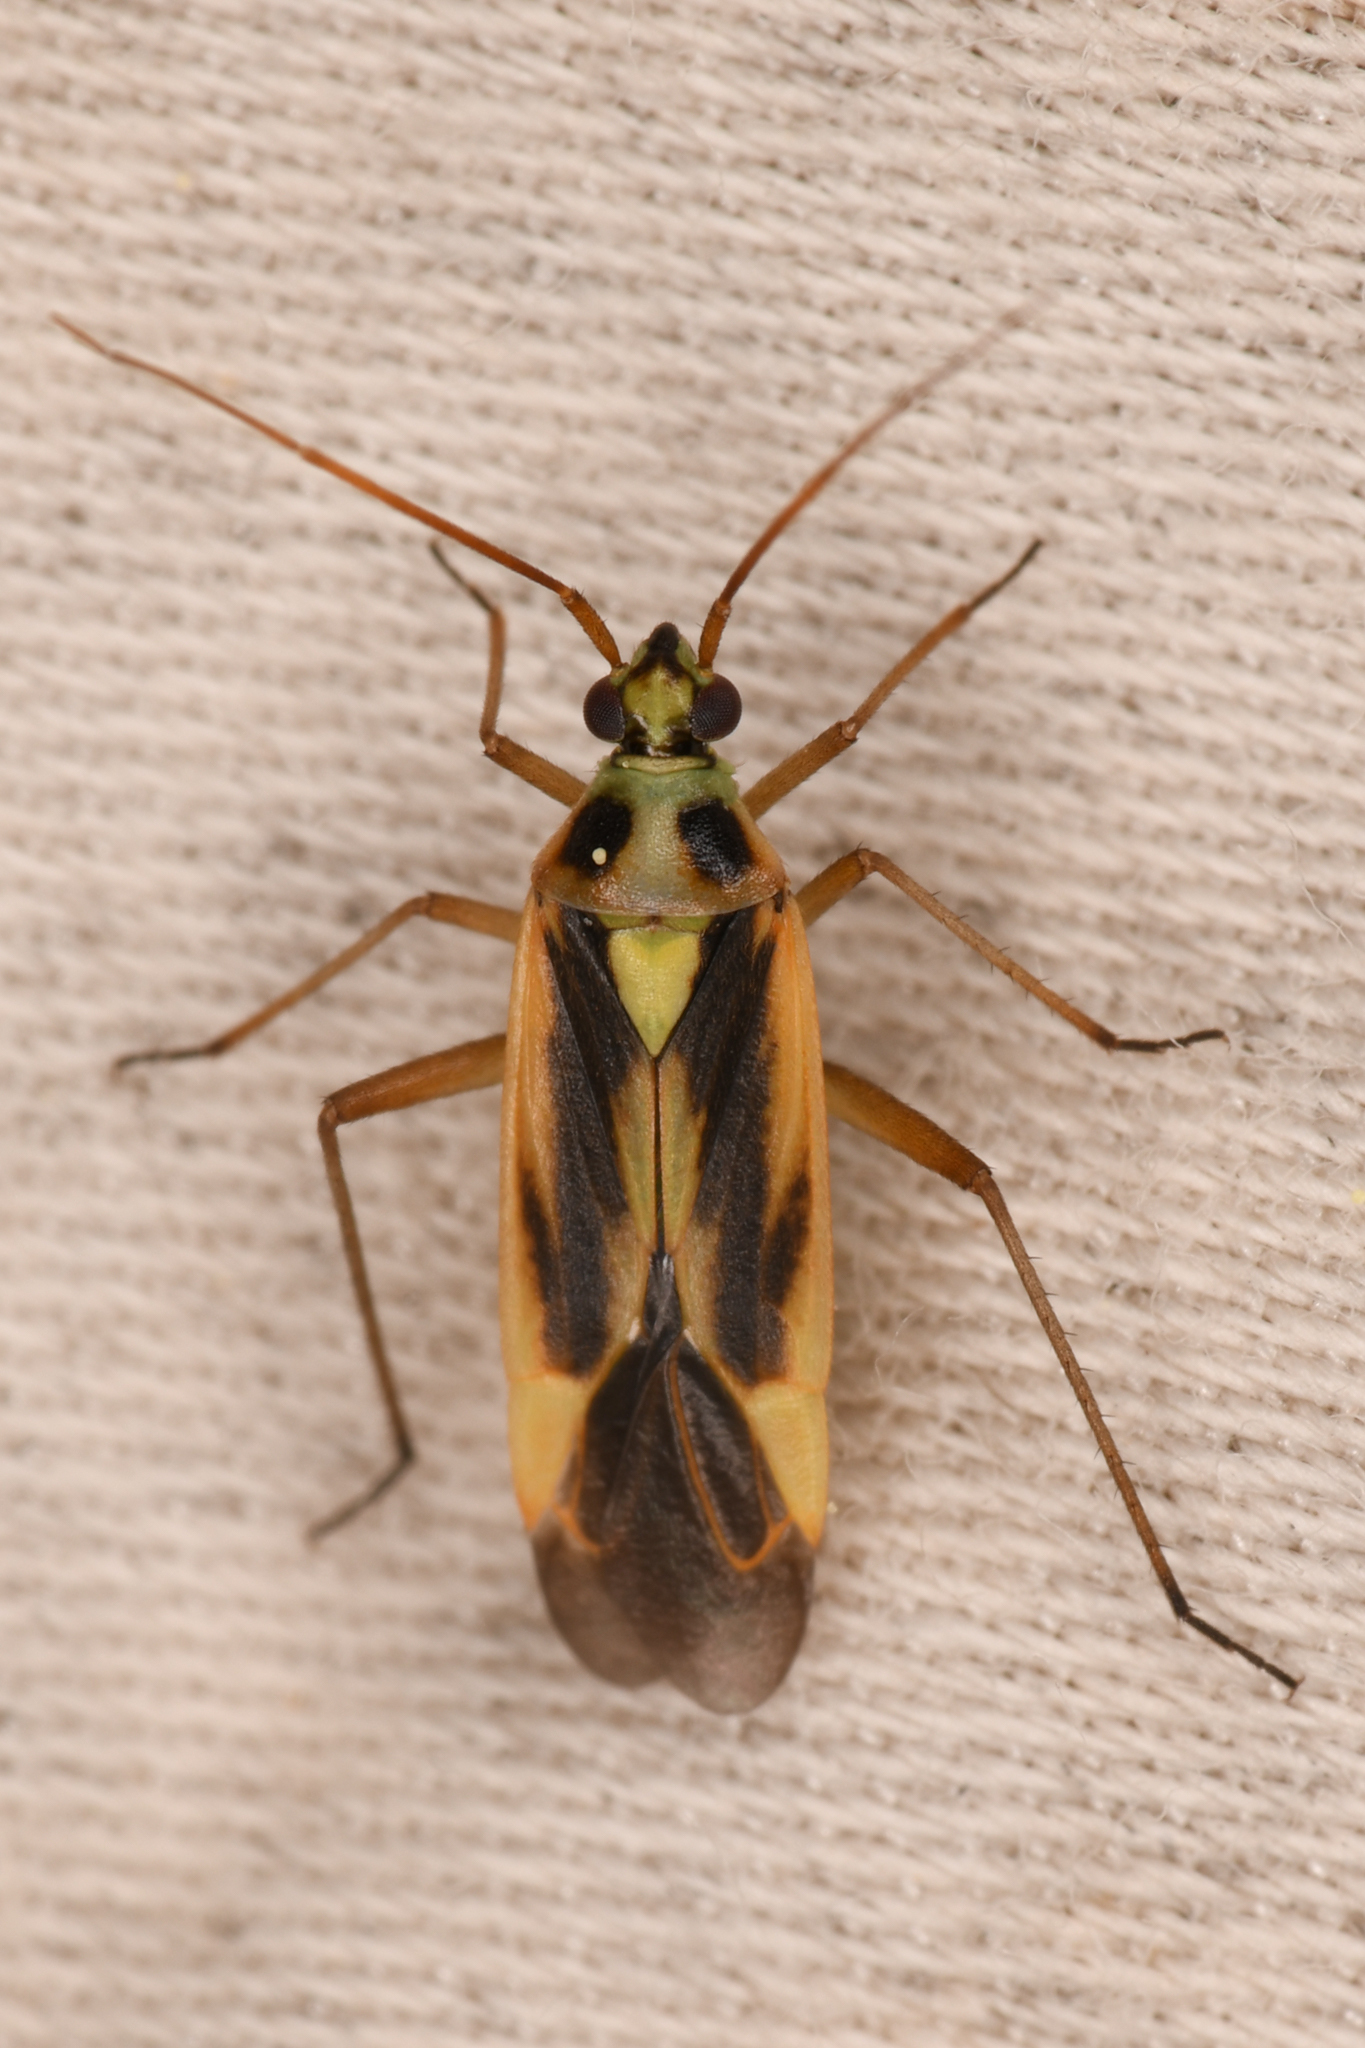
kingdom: Animalia
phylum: Arthropoda
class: Insecta
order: Hemiptera
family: Miridae
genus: Stenotus
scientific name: Stenotus binotatus
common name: Plant bug
